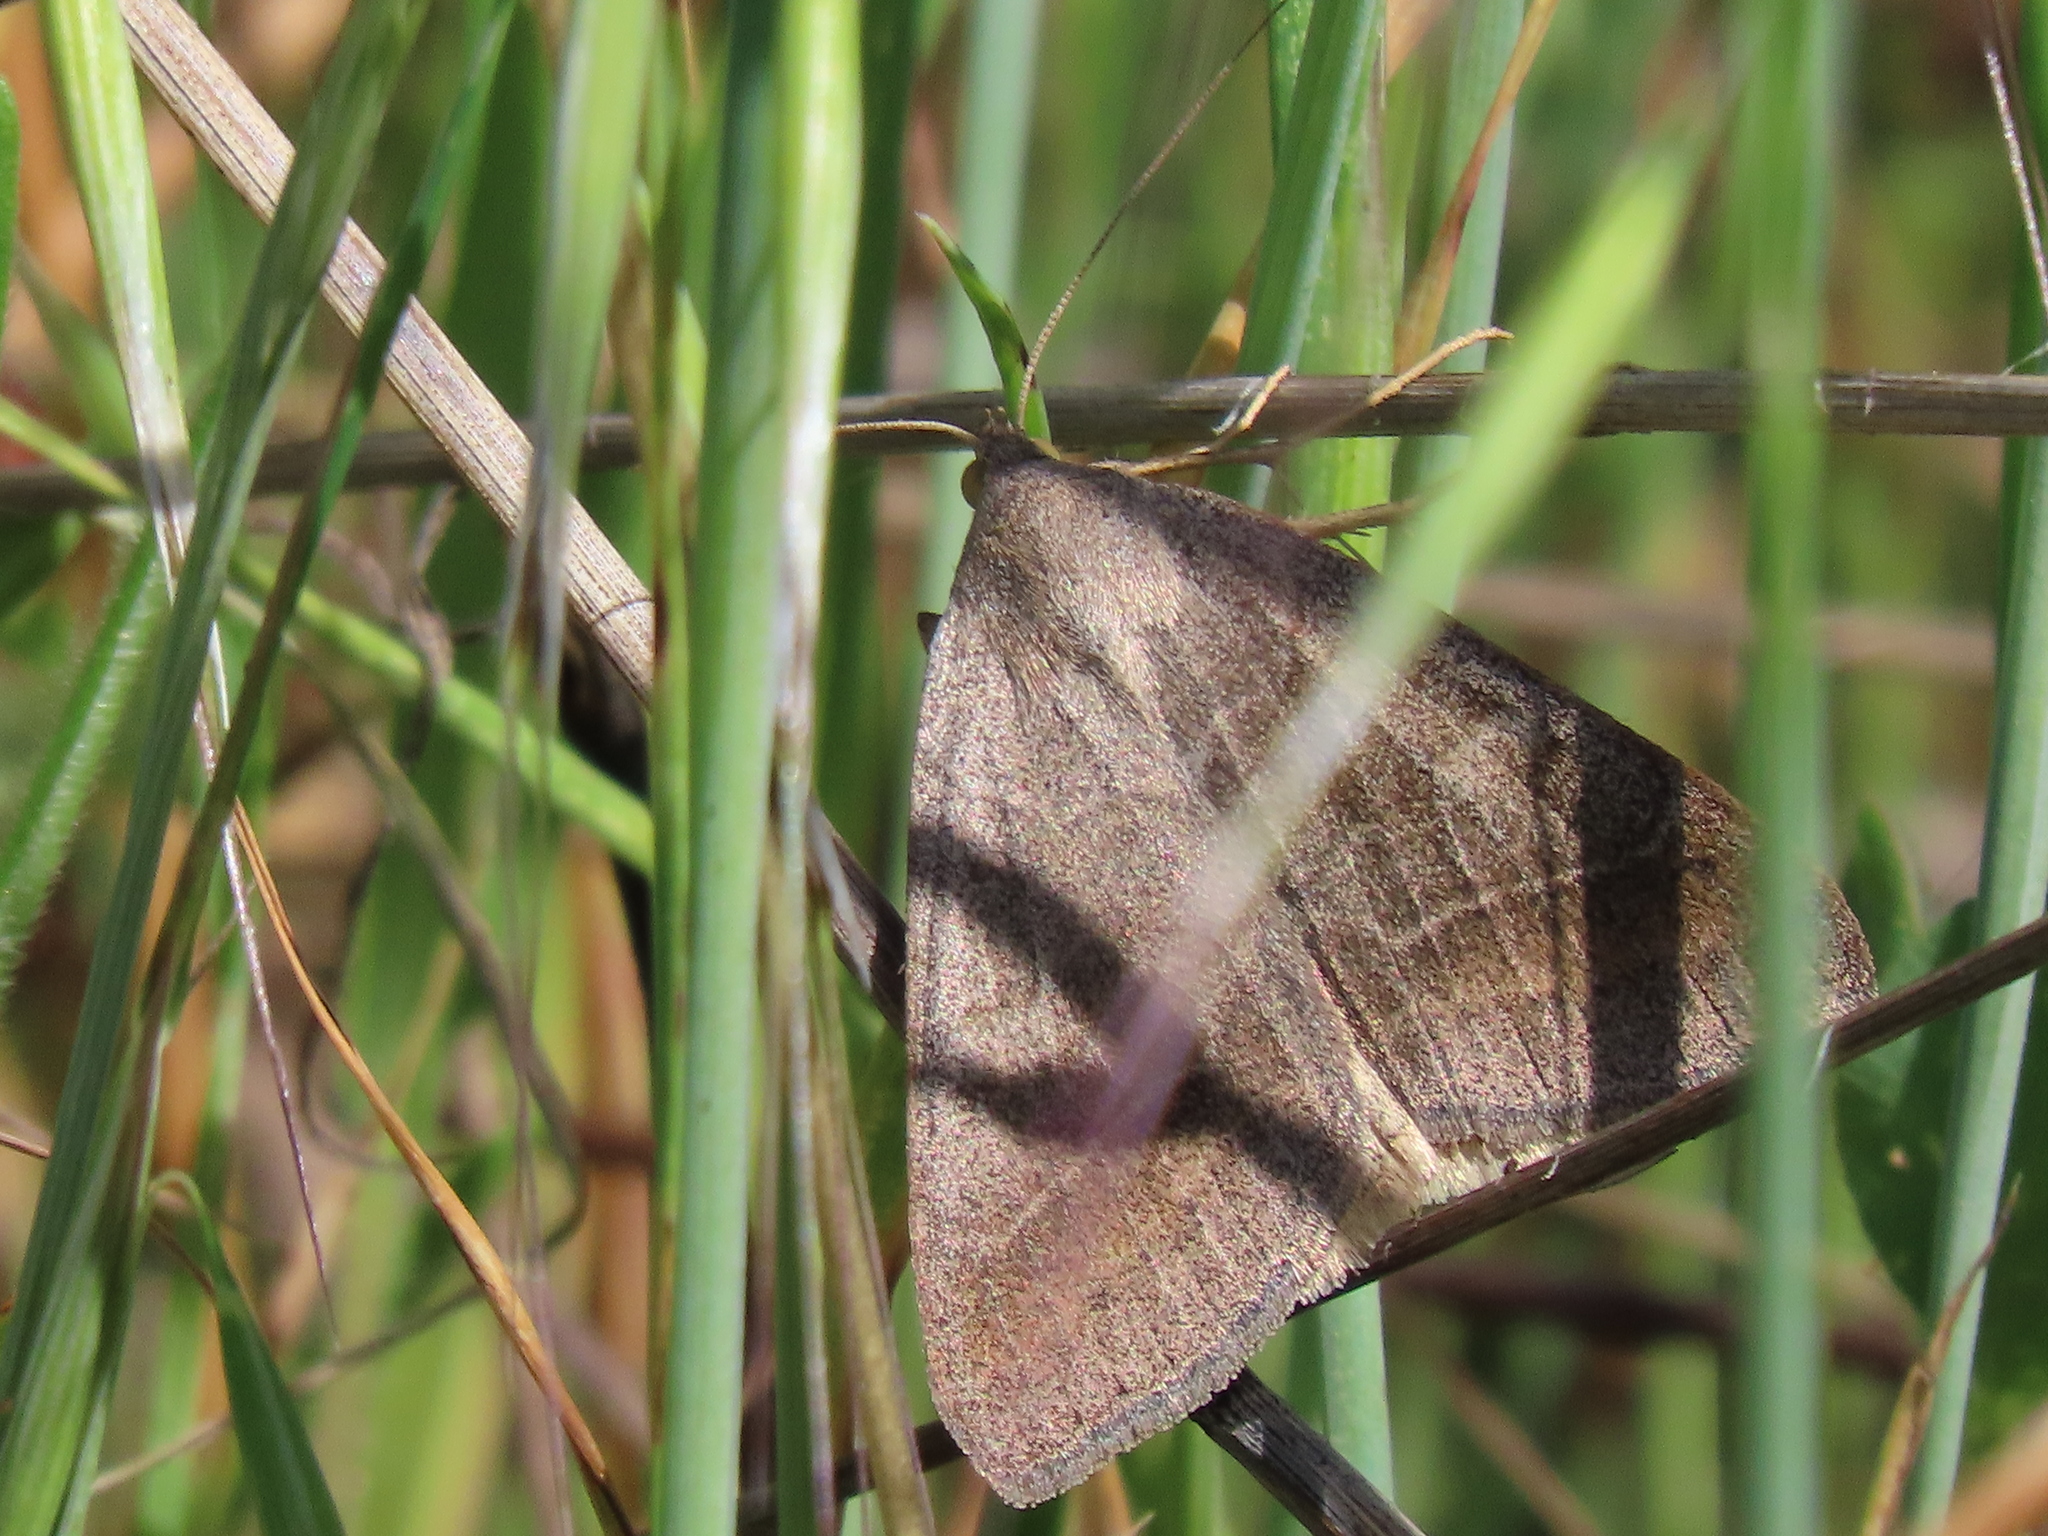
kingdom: Animalia
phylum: Arthropoda
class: Insecta
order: Lepidoptera
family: Erebidae
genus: Caenurgia
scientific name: Caenurgia togataria
